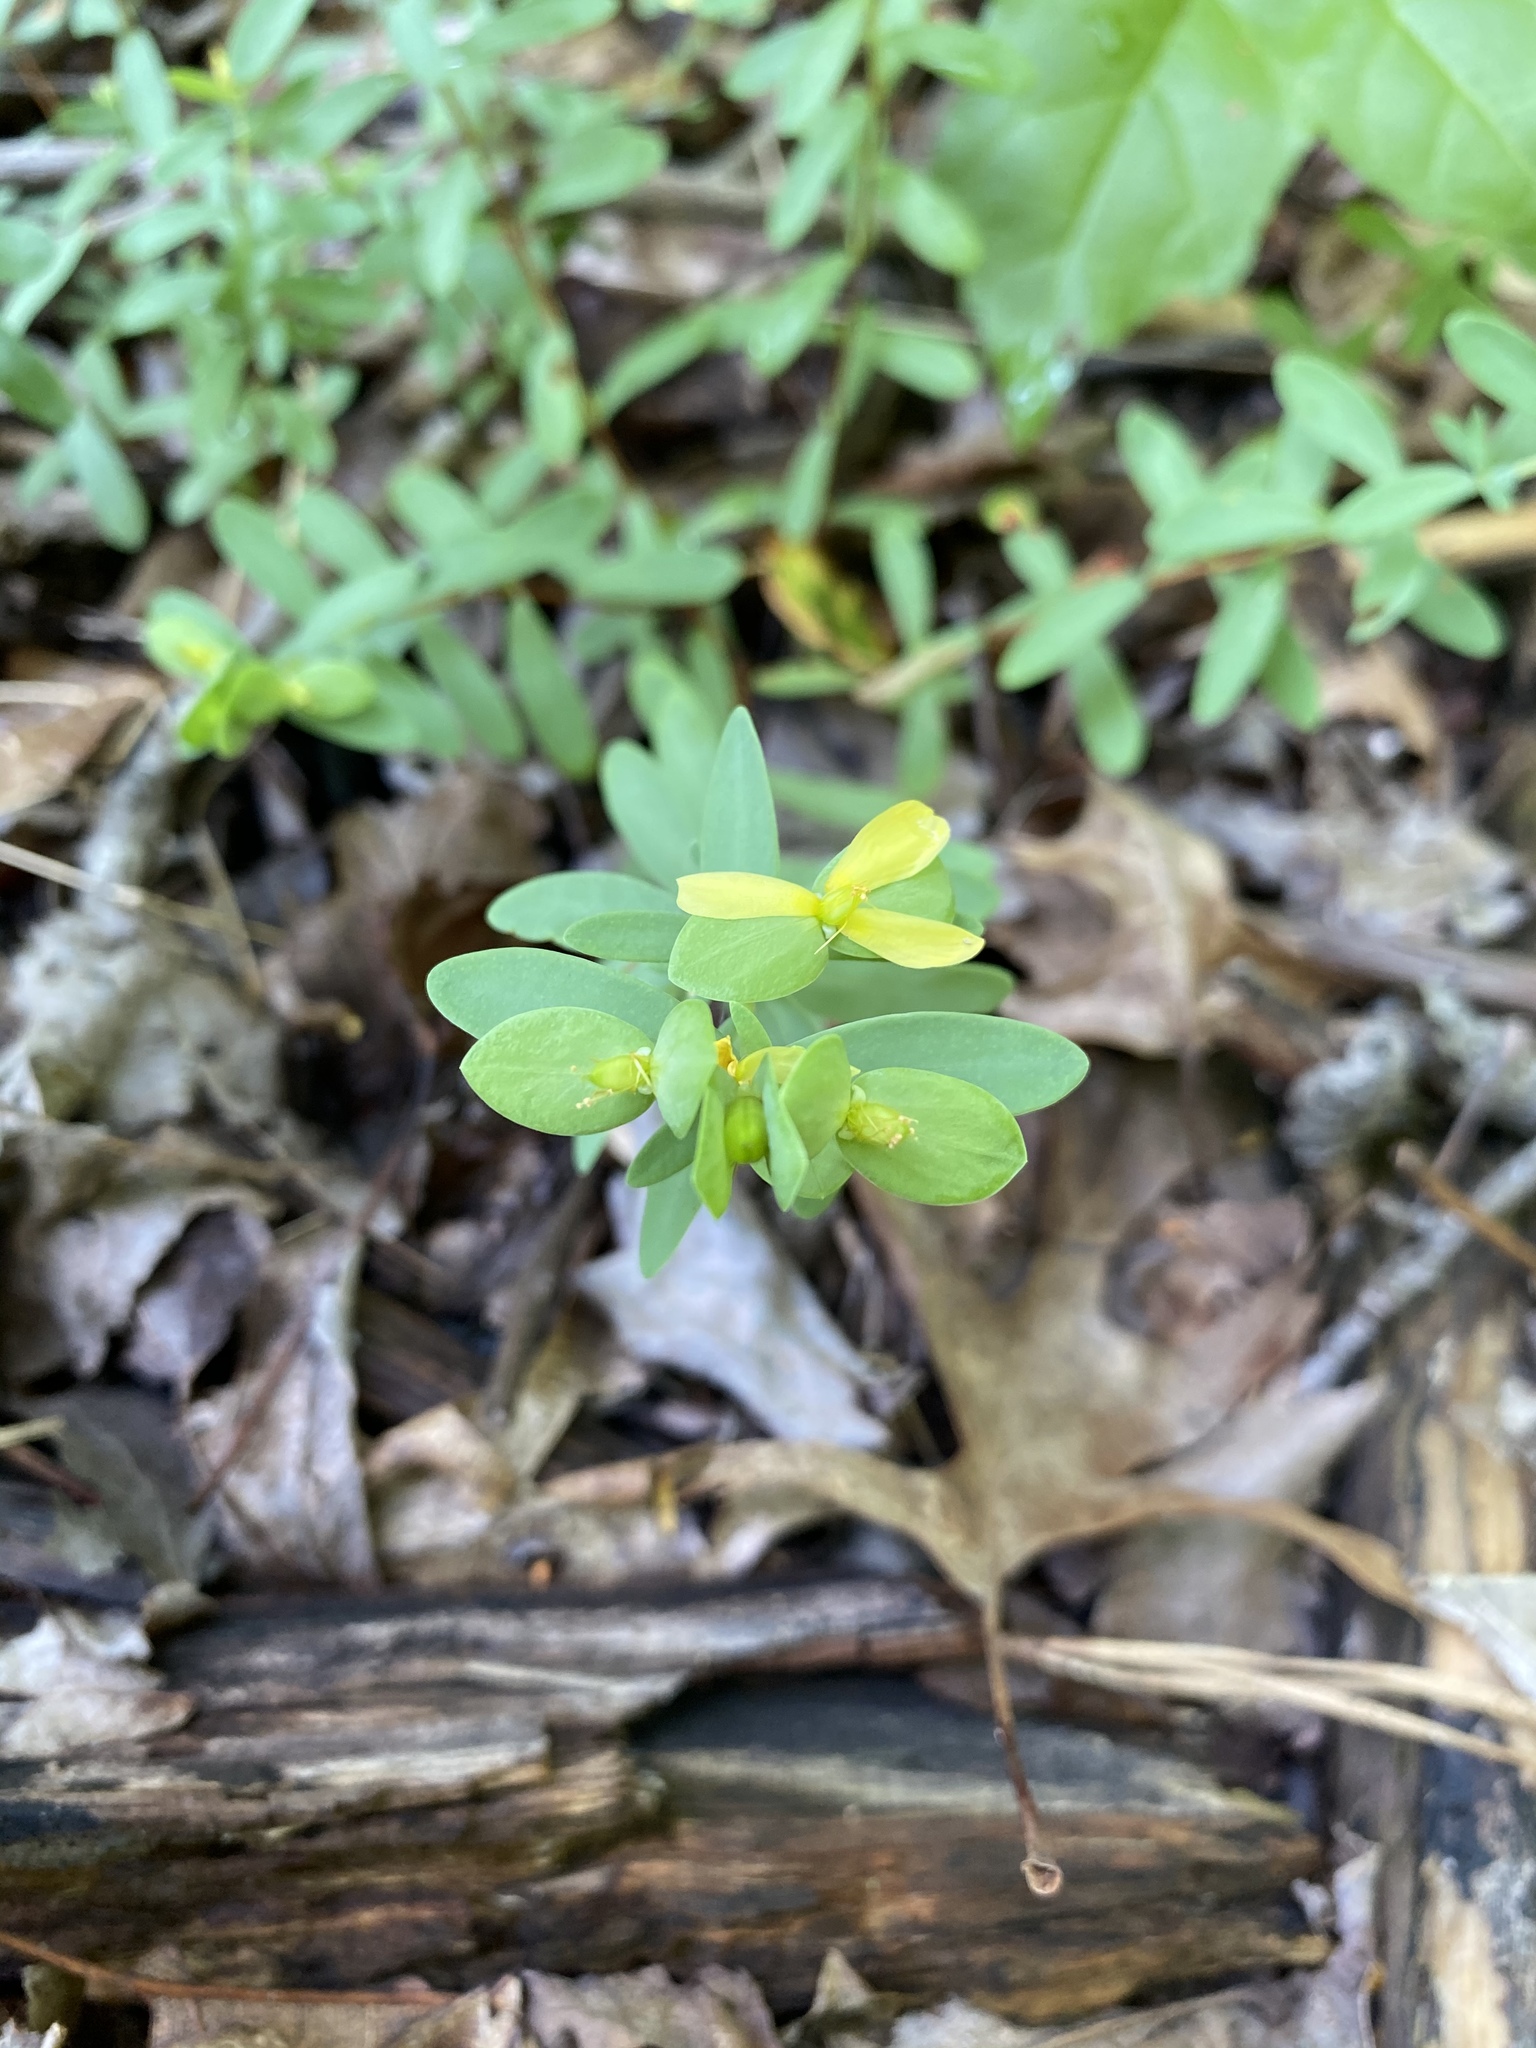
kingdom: Plantae
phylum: Tracheophyta
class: Magnoliopsida
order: Malpighiales
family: Hypericaceae
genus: Hypericum
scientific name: Hypericum hypericoides
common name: St. andrew's cross
